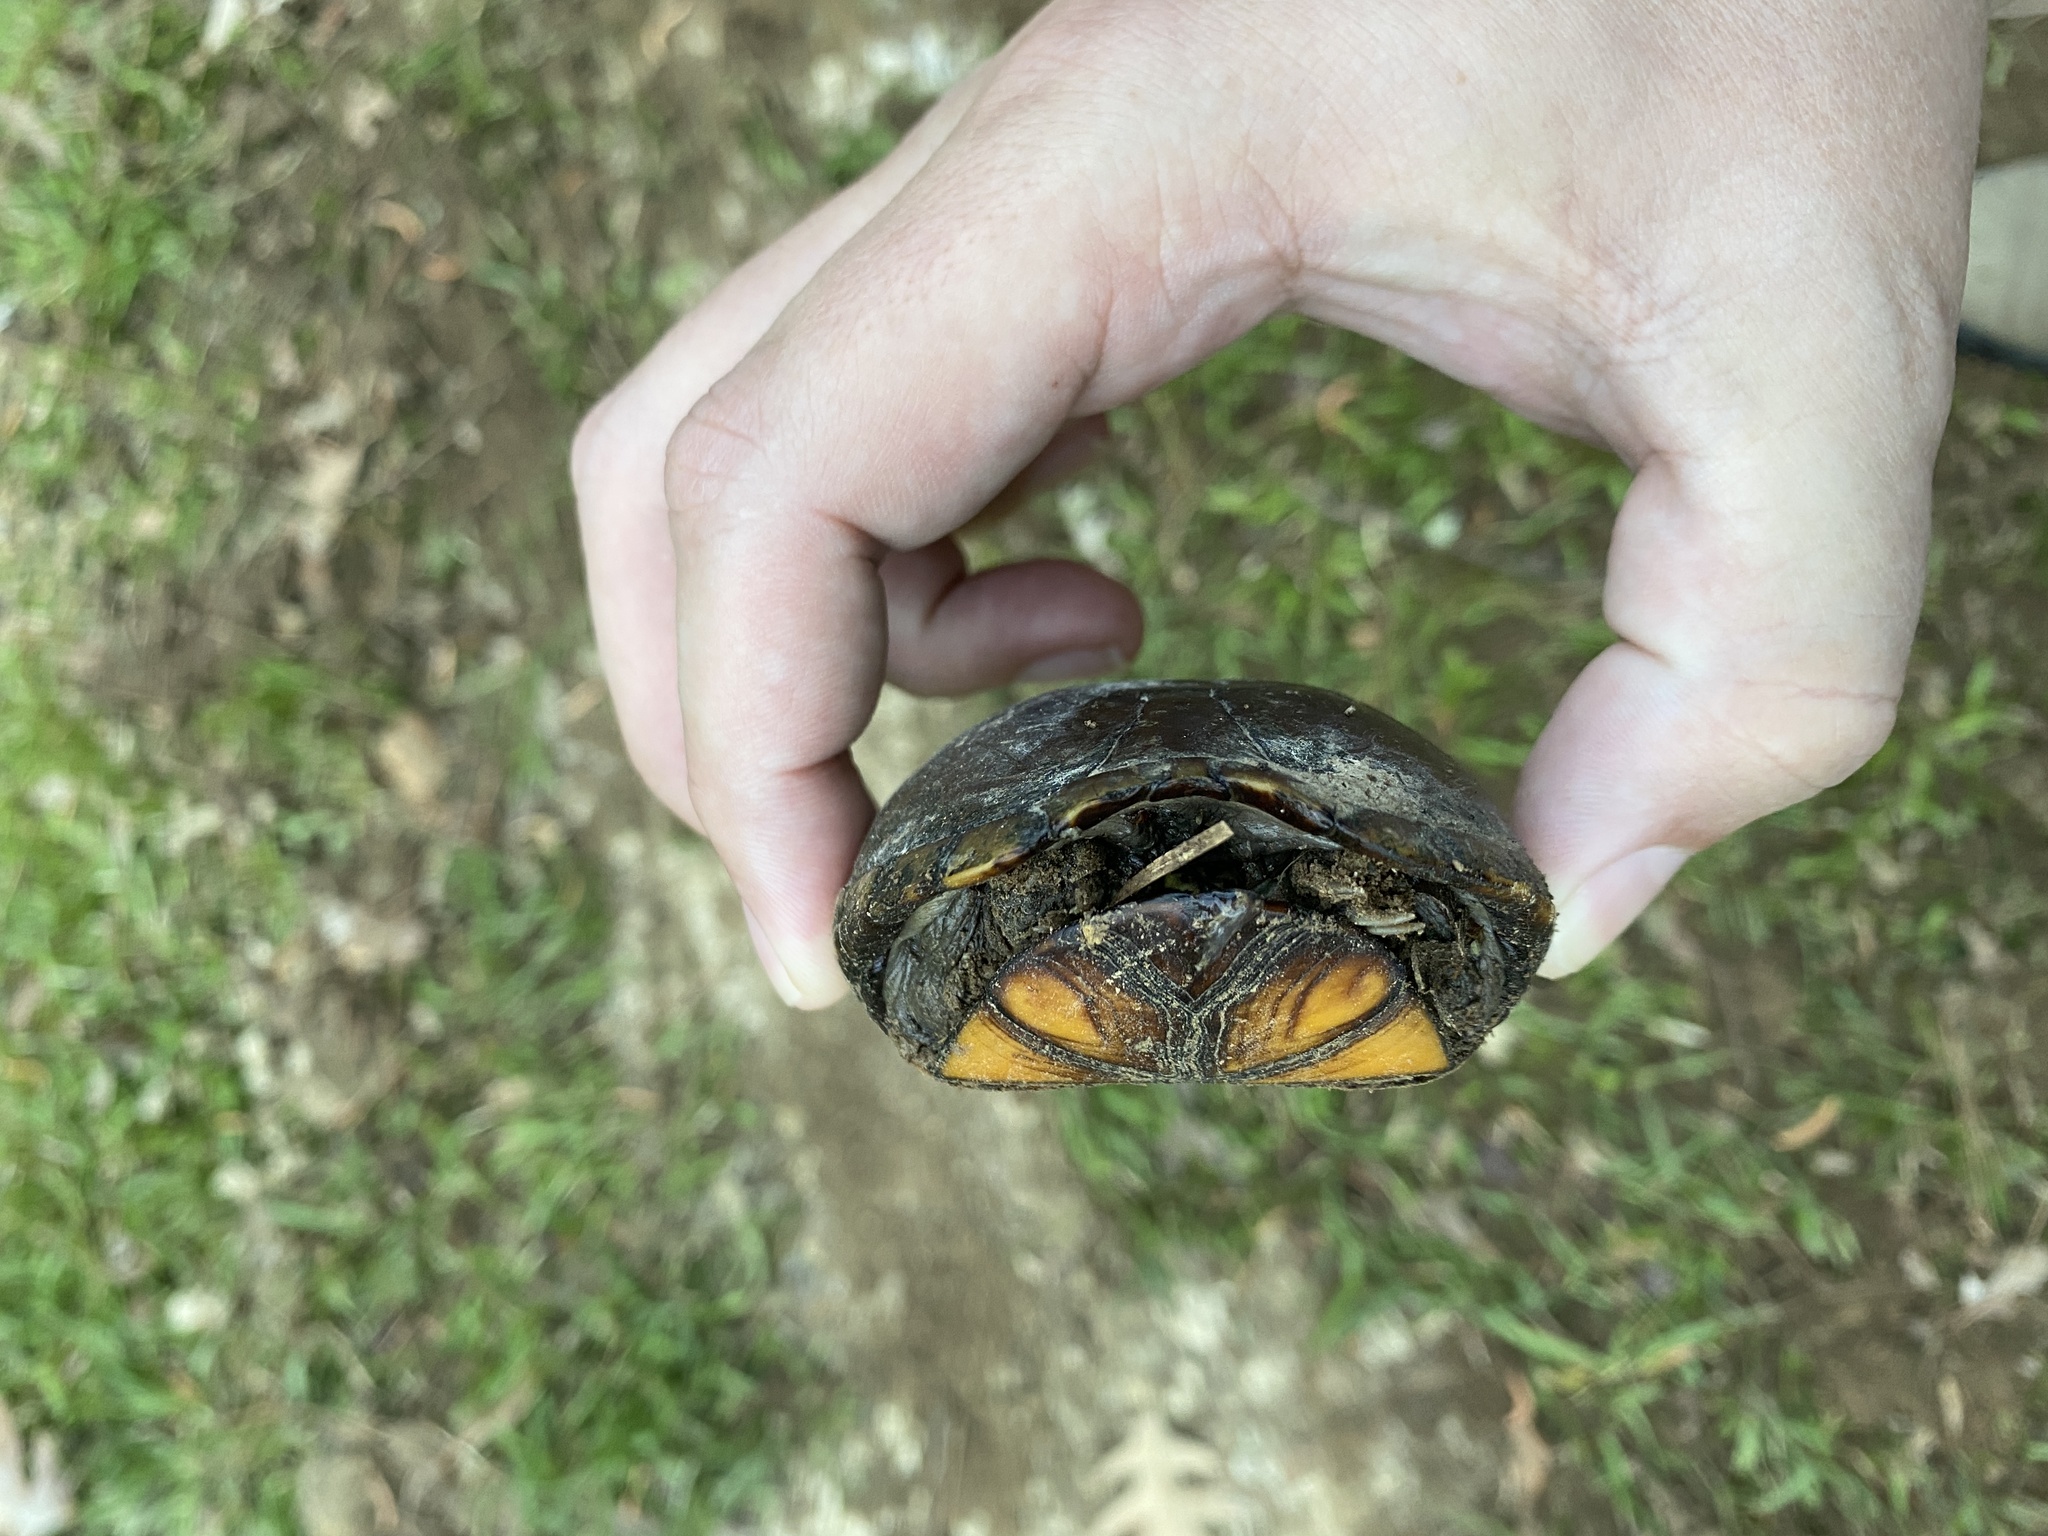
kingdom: Animalia
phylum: Chordata
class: Testudines
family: Kinosternidae
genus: Kinosternon
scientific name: Kinosternon subrubrum
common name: Eastern mud turtle
